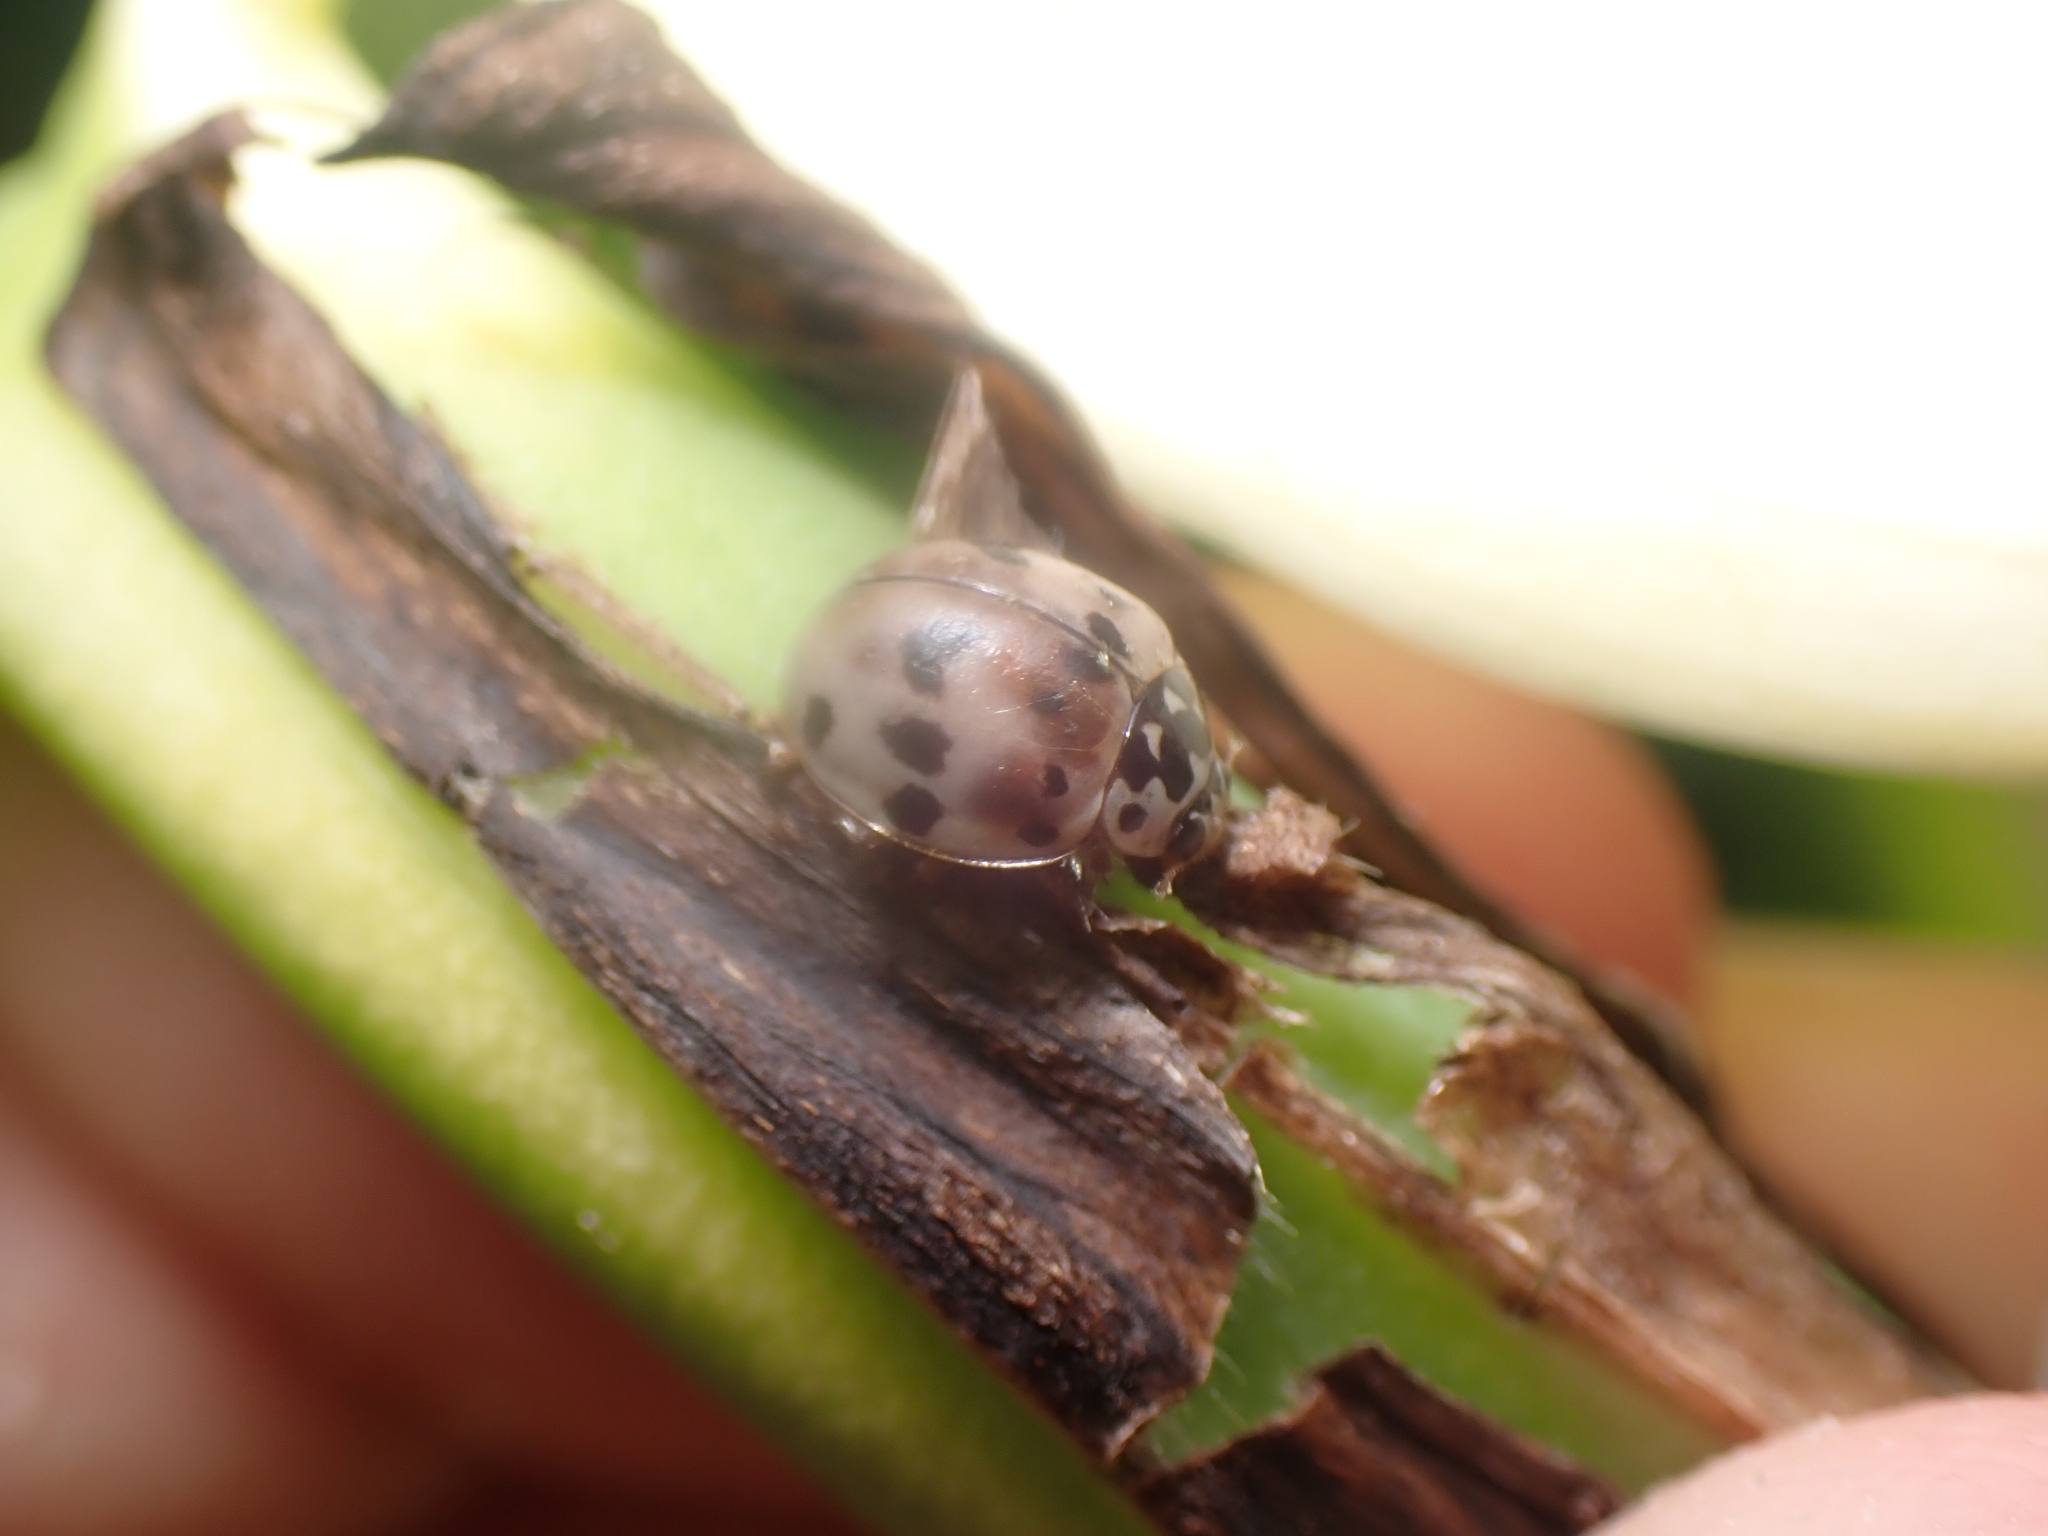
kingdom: Animalia
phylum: Arthropoda
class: Insecta
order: Coleoptera
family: Coccinellidae
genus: Olla
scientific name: Olla v-nigrum
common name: Ashy gray lady beetle
